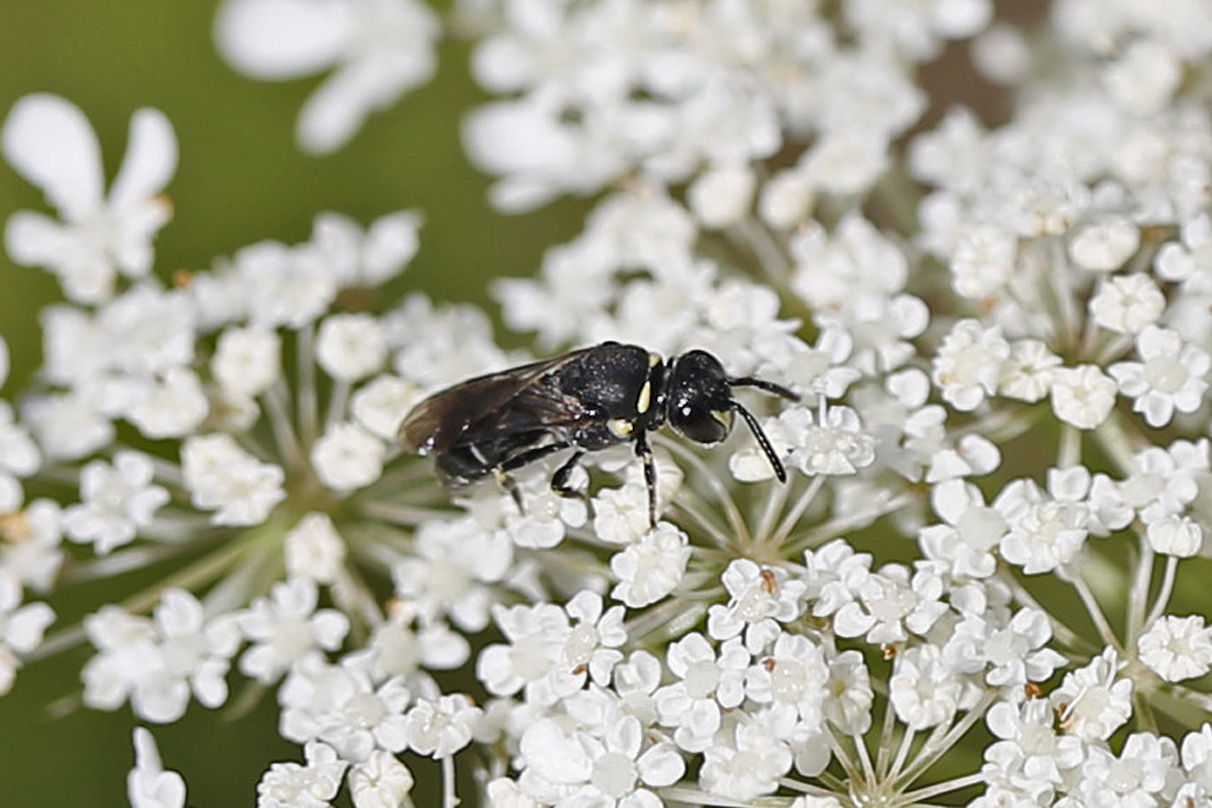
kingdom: Animalia
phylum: Arthropoda
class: Insecta
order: Hymenoptera
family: Colletidae
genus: Hylaeus
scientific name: Hylaeus modestus
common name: Yellow-faced bee
